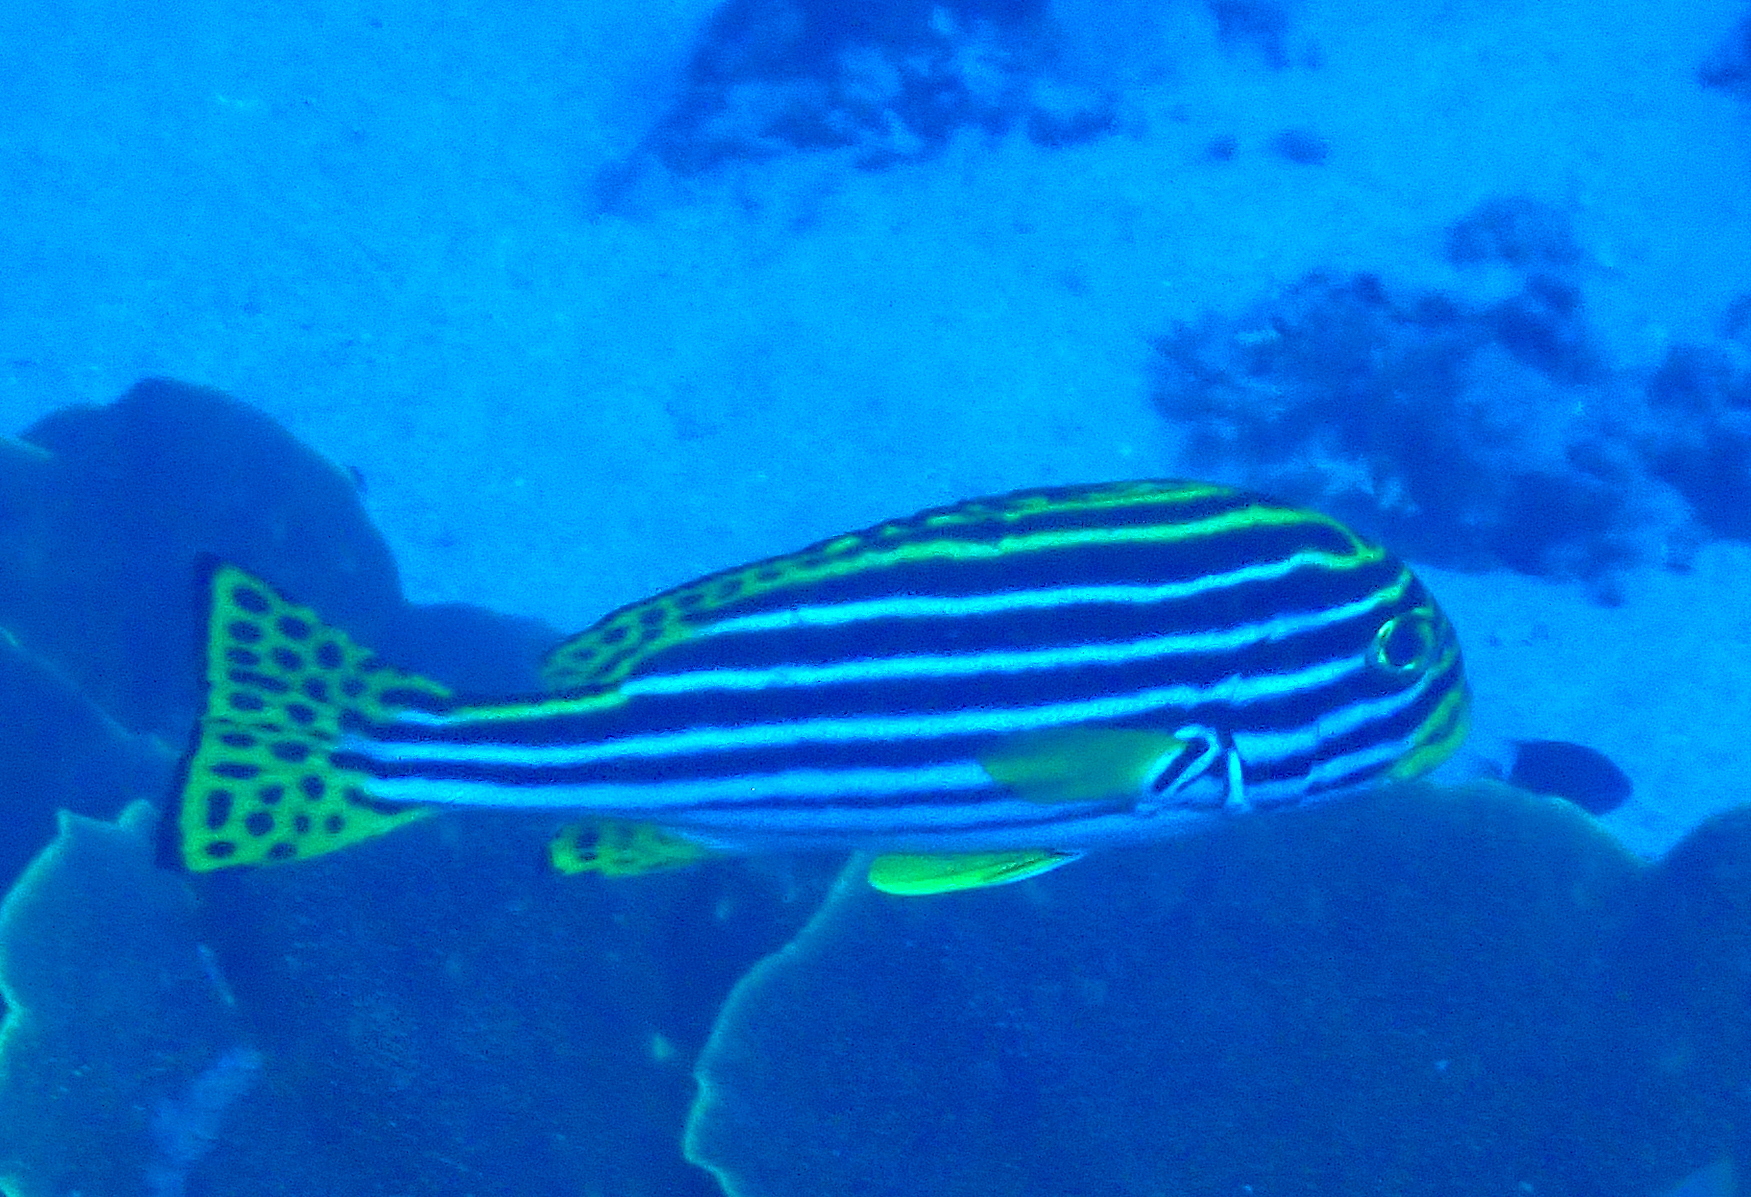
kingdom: Animalia
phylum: Chordata
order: Perciformes
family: Haemulidae
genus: Plectorhinchus
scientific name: Plectorhinchus vittatus
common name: Oriental sweetlips
